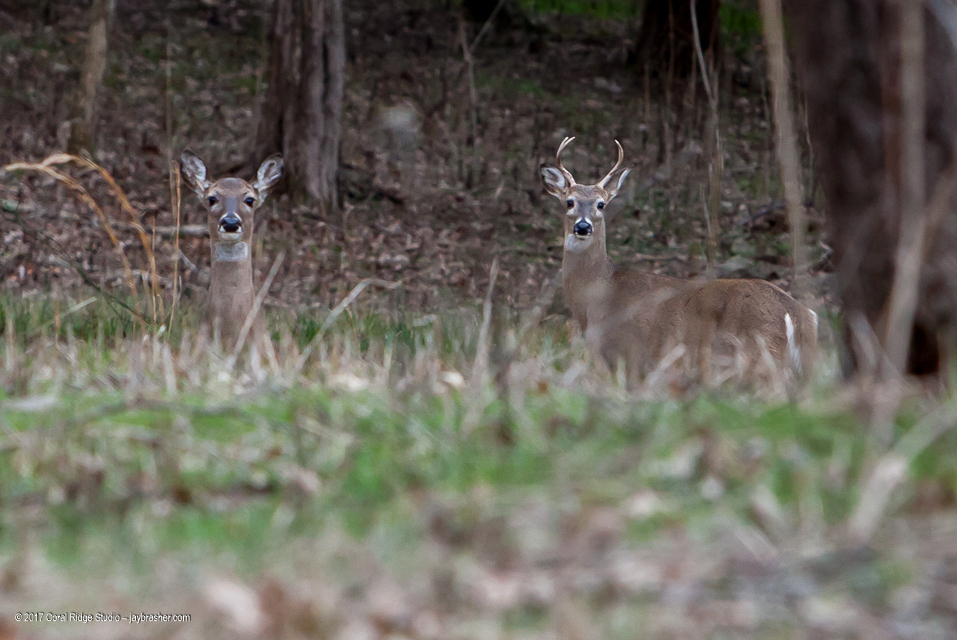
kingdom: Animalia
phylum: Chordata
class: Mammalia
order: Artiodactyla
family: Cervidae
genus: Odocoileus
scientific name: Odocoileus virginianus
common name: White-tailed deer
